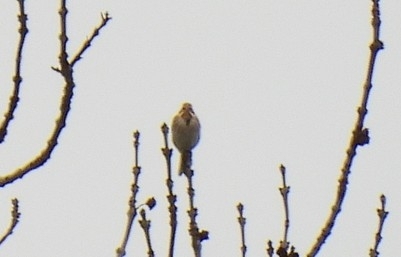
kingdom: Animalia
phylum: Chordata
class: Aves
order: Passeriformes
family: Emberizidae
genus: Emberiza
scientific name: Emberiza schoeniclus
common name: Reed bunting
